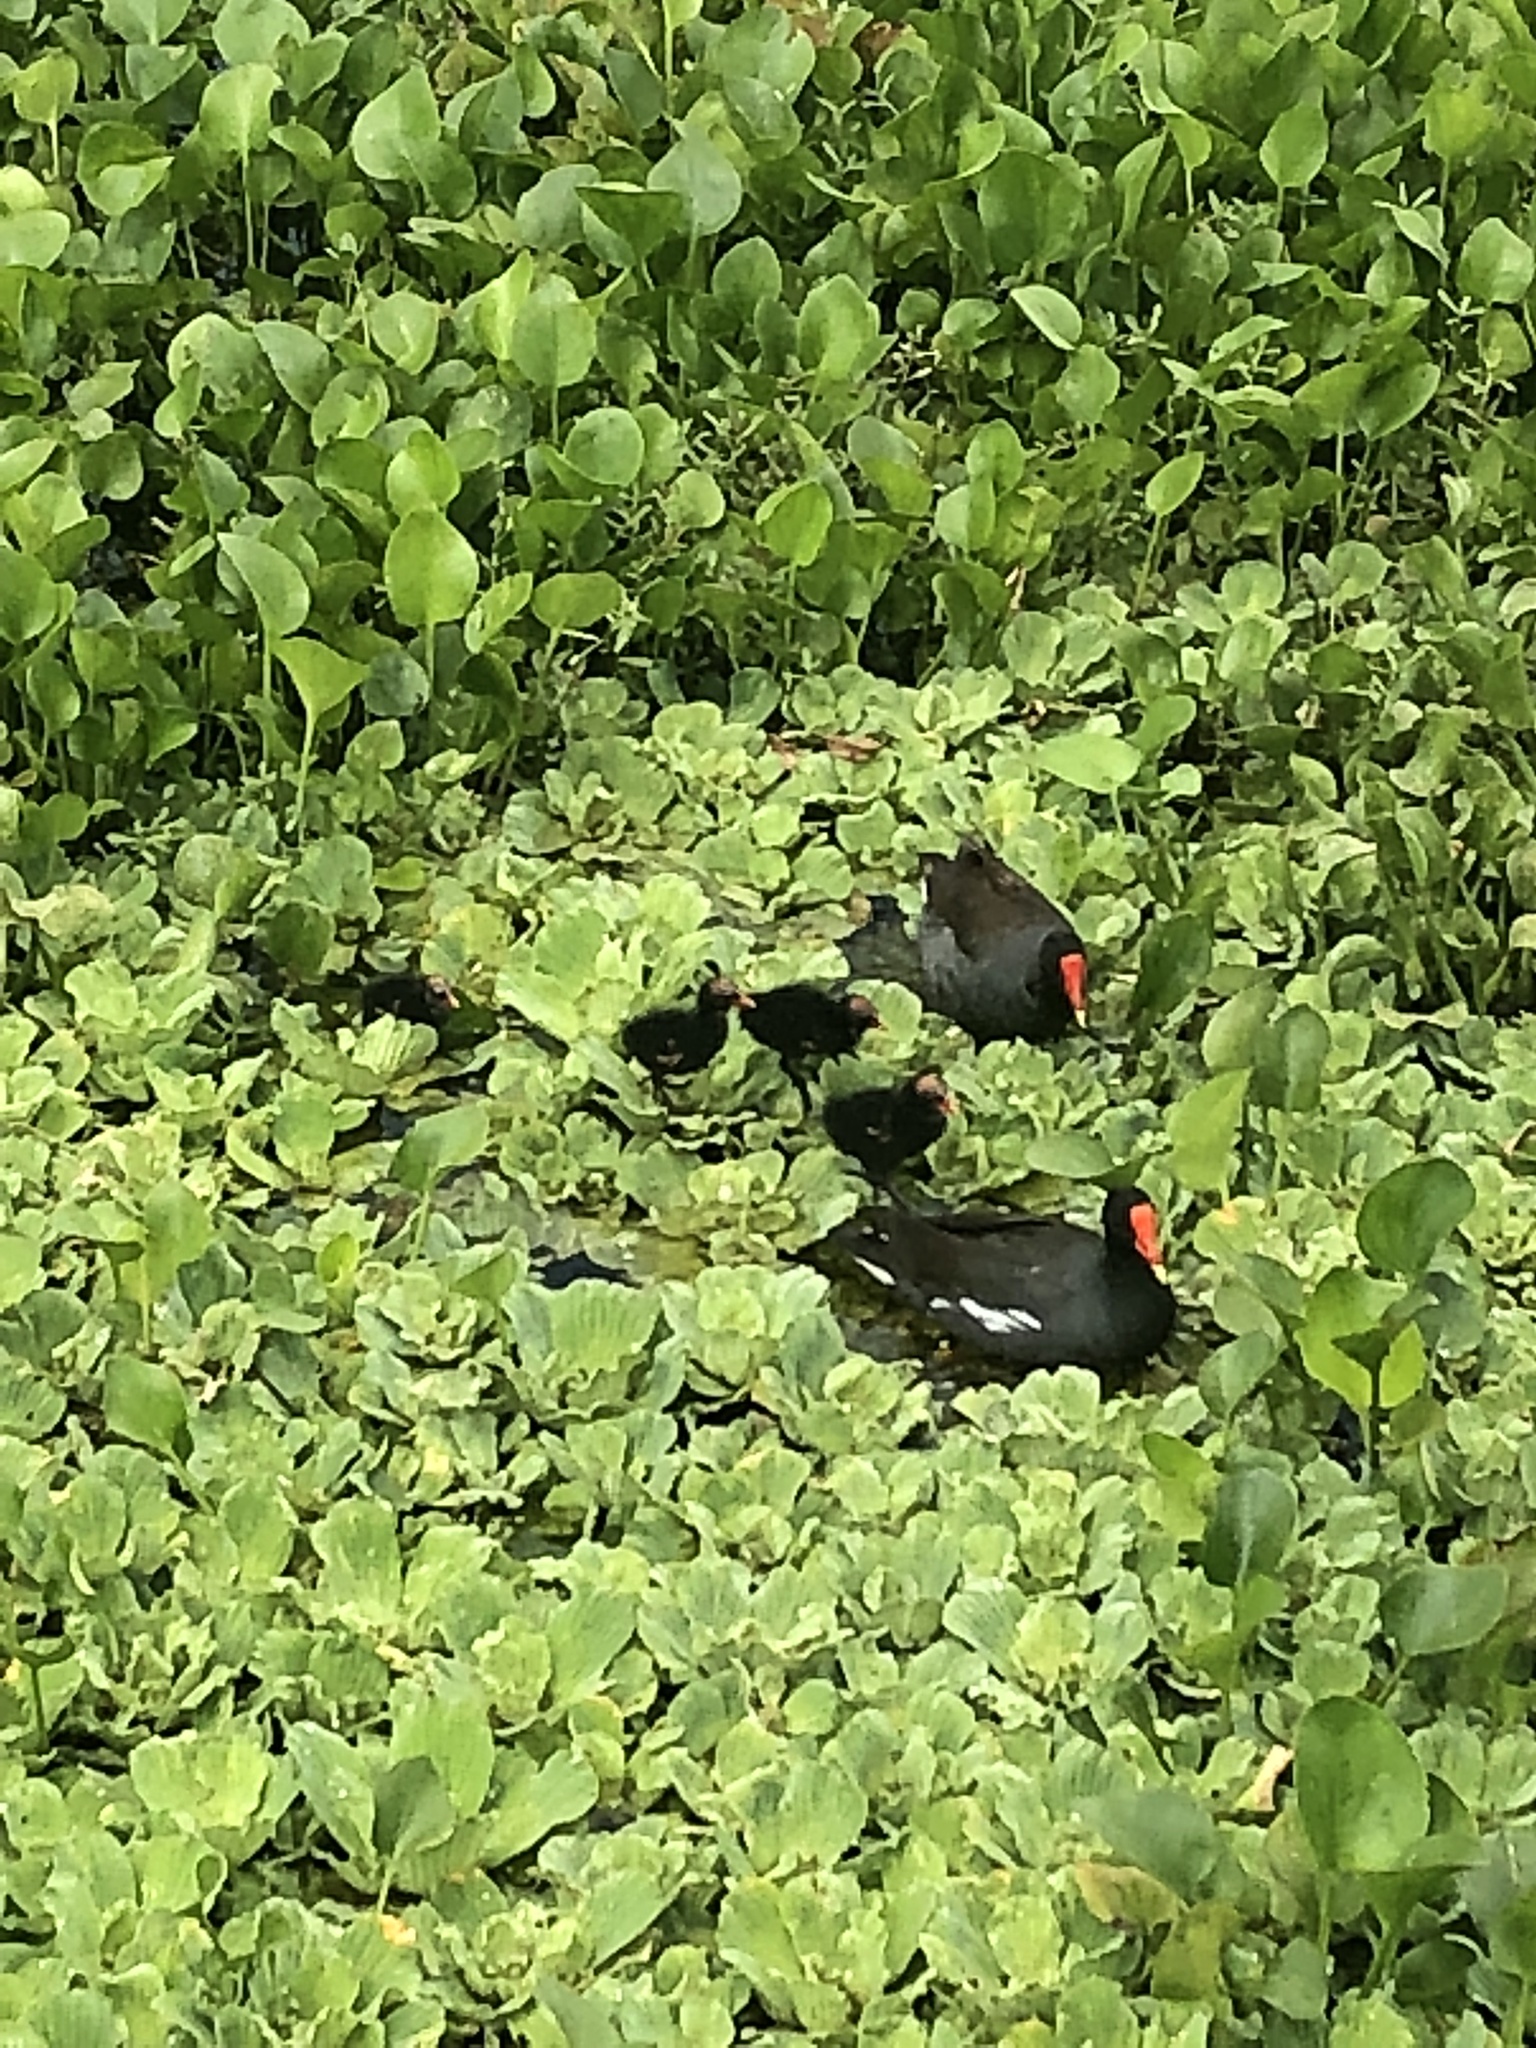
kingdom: Animalia
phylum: Chordata
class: Aves
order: Gruiformes
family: Rallidae
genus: Gallinula
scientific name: Gallinula chloropus
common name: Common moorhen
